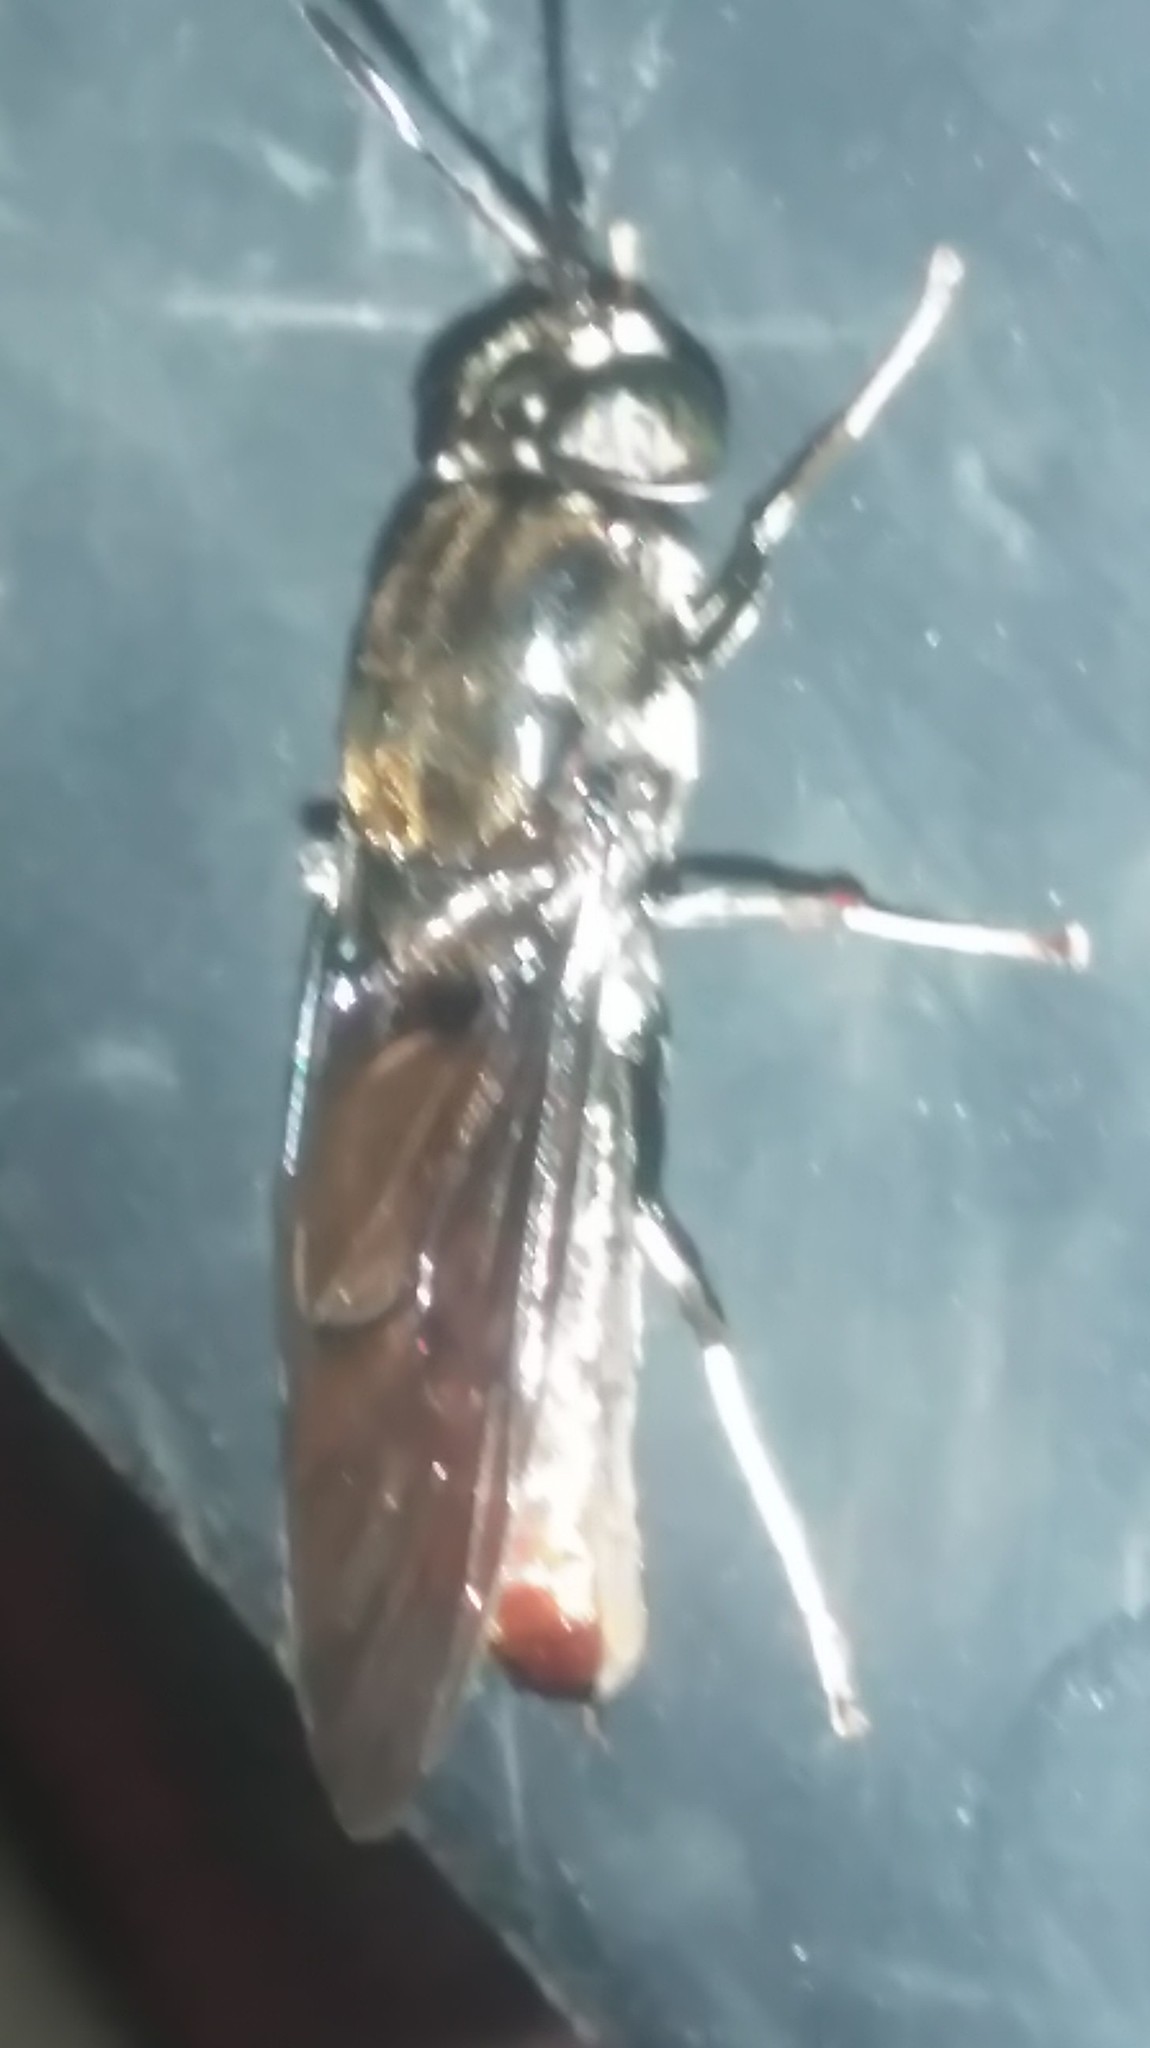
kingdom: Animalia
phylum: Arthropoda
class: Insecta
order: Diptera
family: Stratiomyidae
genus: Hermetia
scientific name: Hermetia illucens
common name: Black soldier fly
